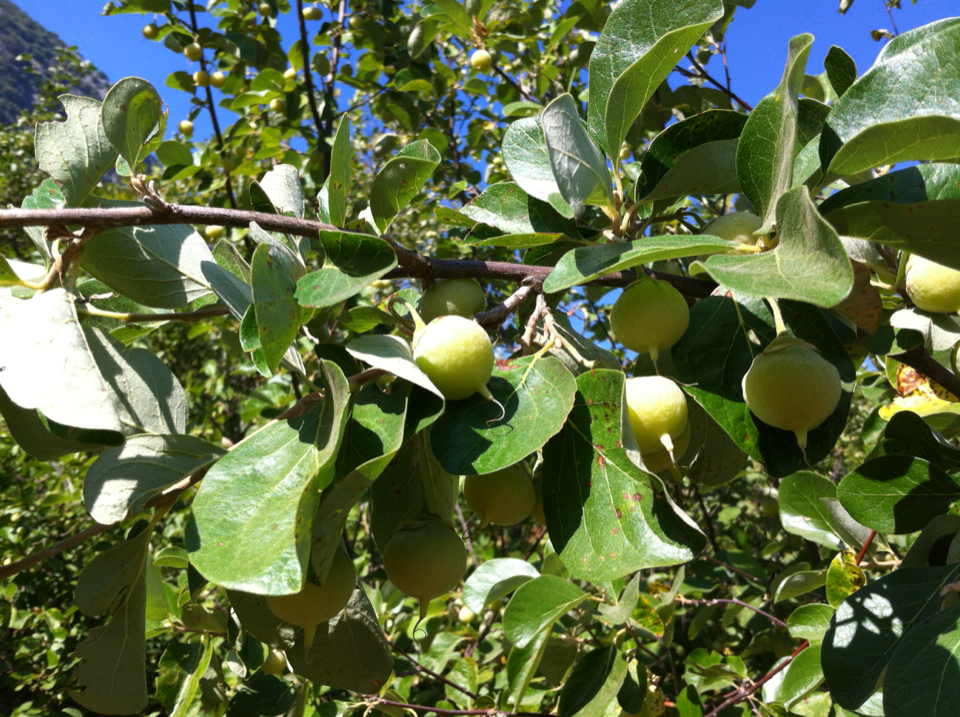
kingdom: Plantae
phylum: Tracheophyta
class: Magnoliopsida
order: Ericales
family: Styracaceae
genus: Styrax
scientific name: Styrax officinalis
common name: Storax
